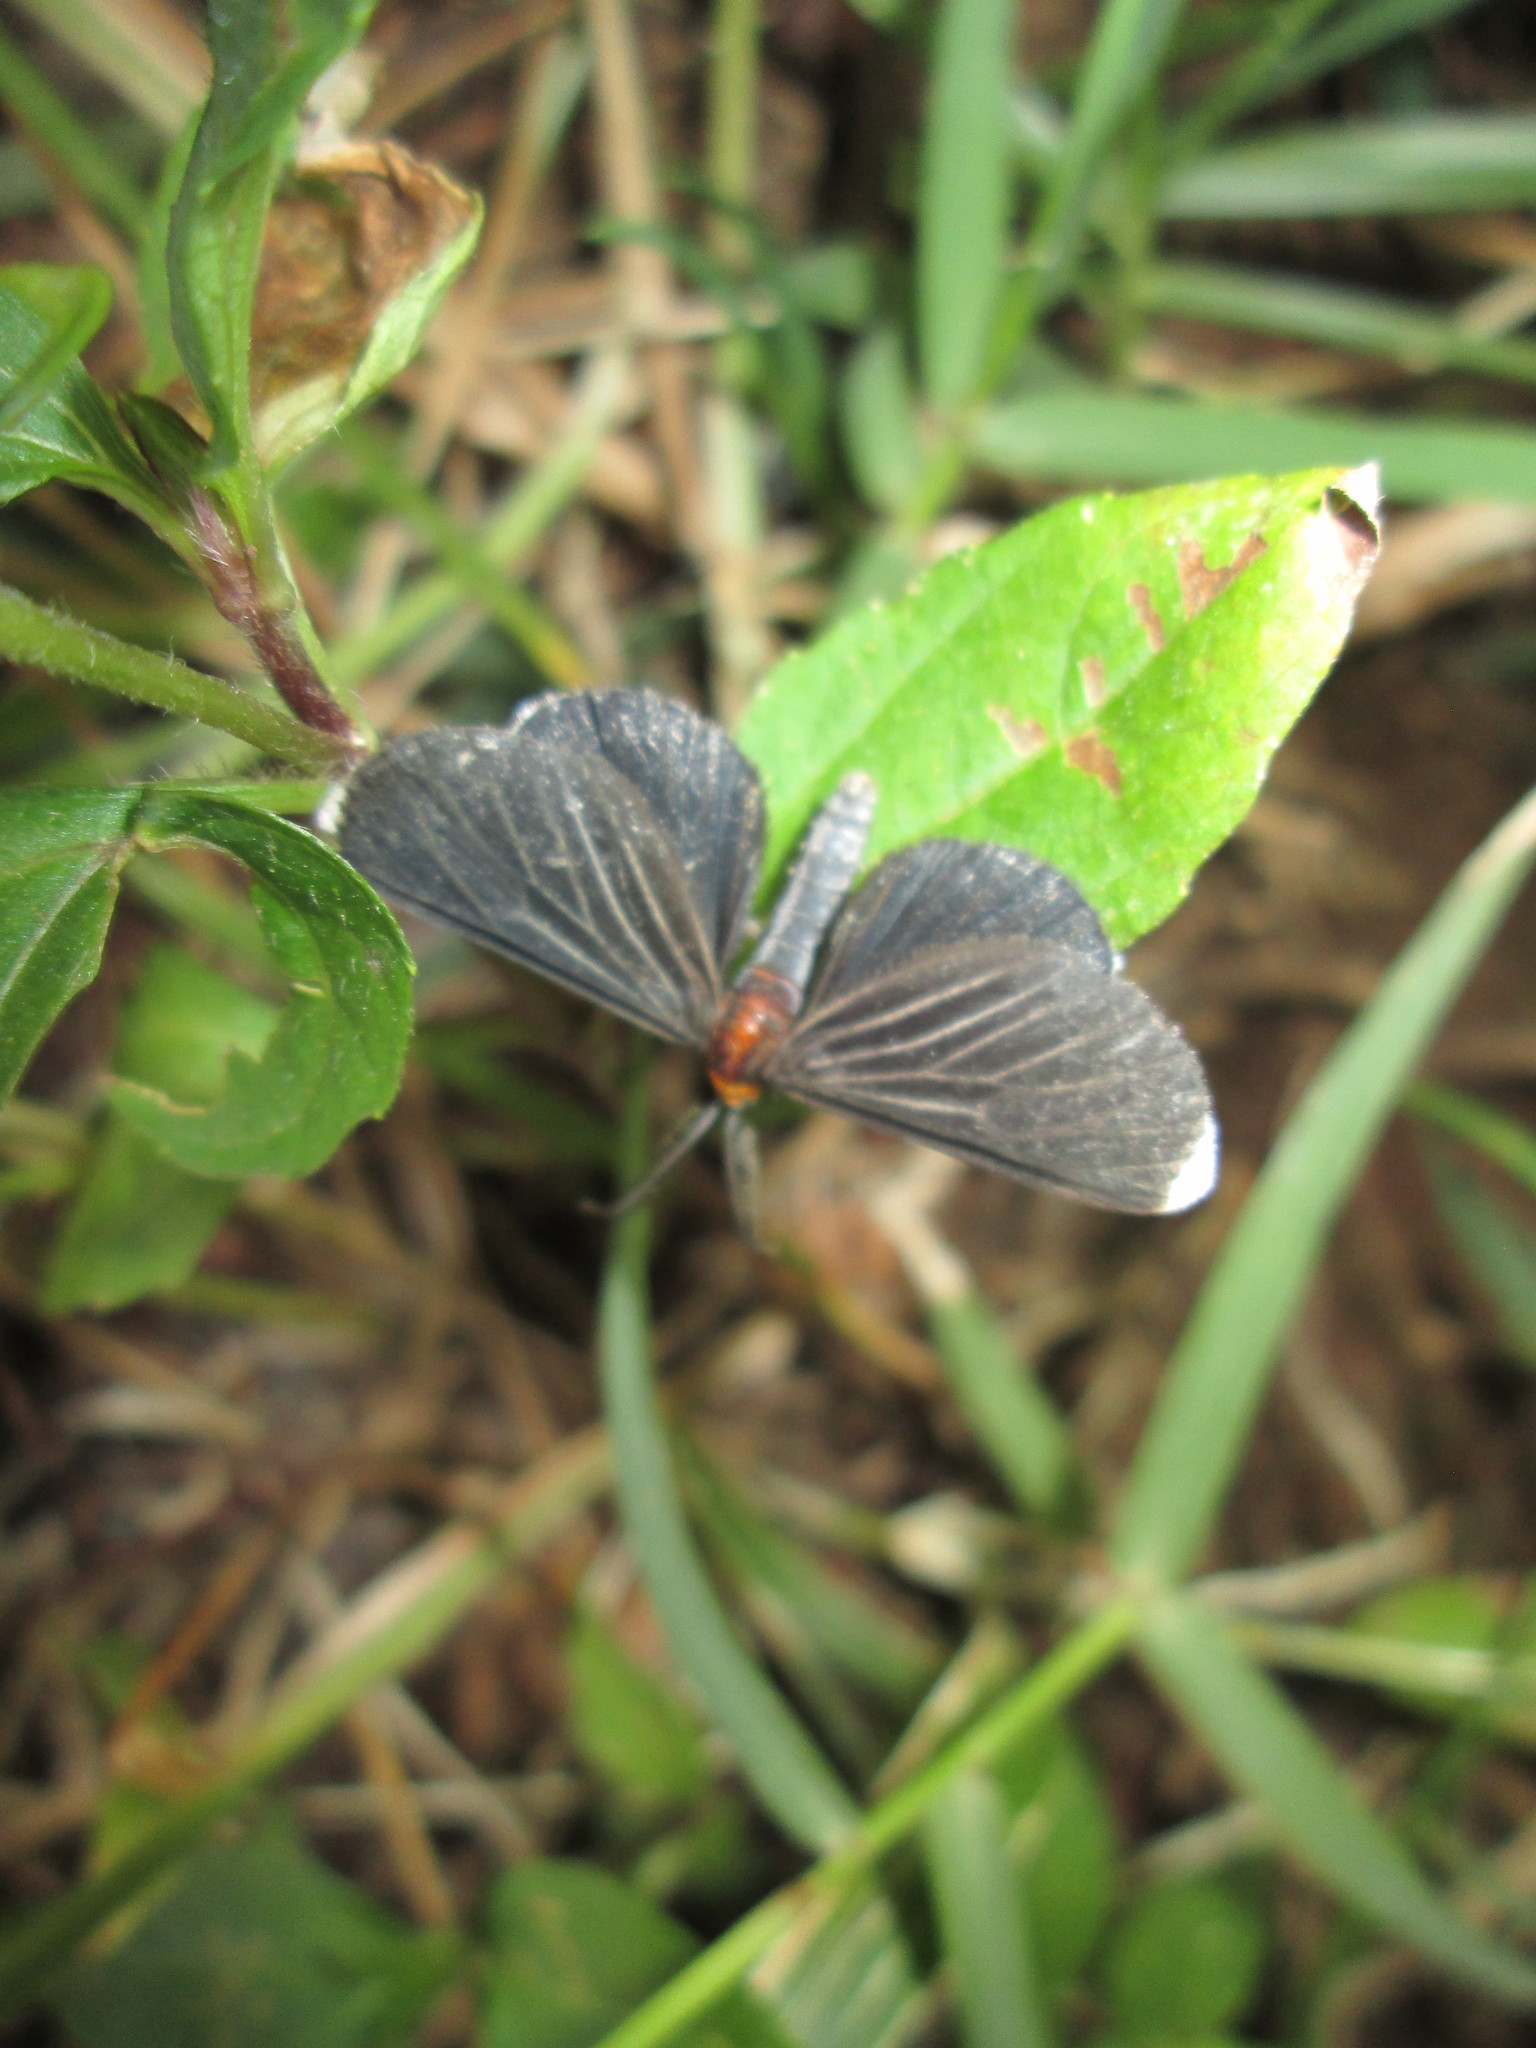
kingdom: Animalia
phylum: Arthropoda
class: Insecta
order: Lepidoptera
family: Geometridae
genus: Melanchroia
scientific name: Melanchroia chephise
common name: White-tipped black
